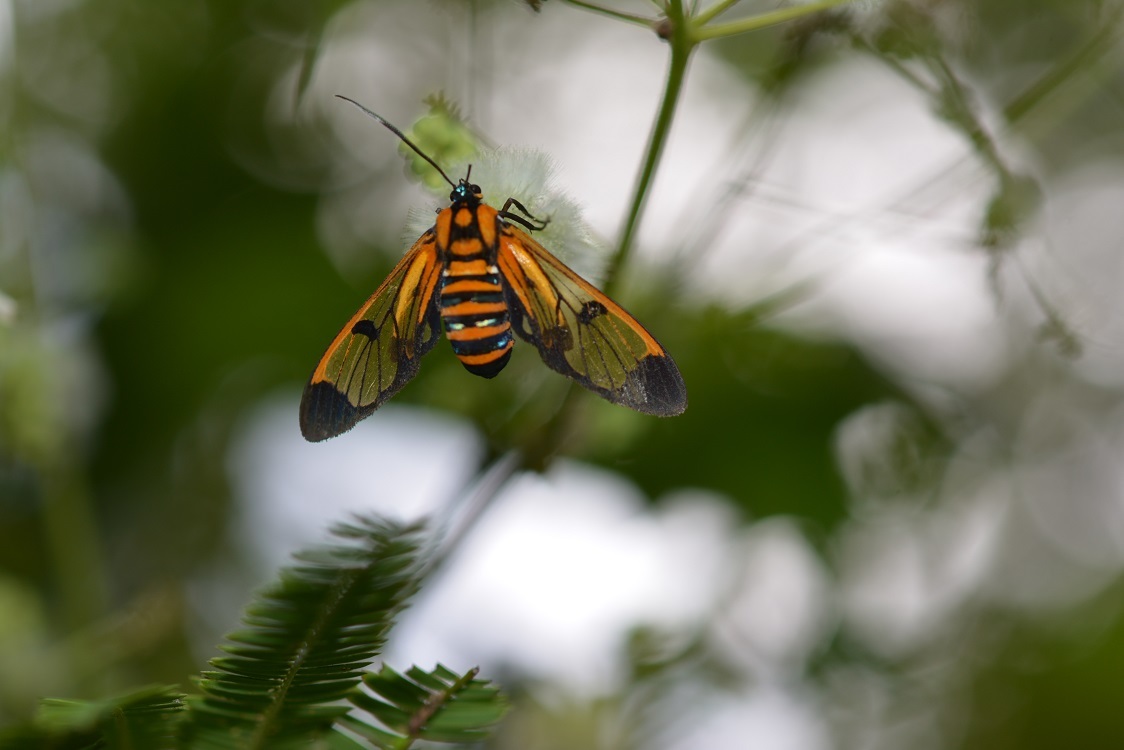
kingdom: Animalia
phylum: Arthropoda
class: Insecta
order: Lepidoptera
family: Erebidae
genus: Gymnelia
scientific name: Gymnelia ethodaea
